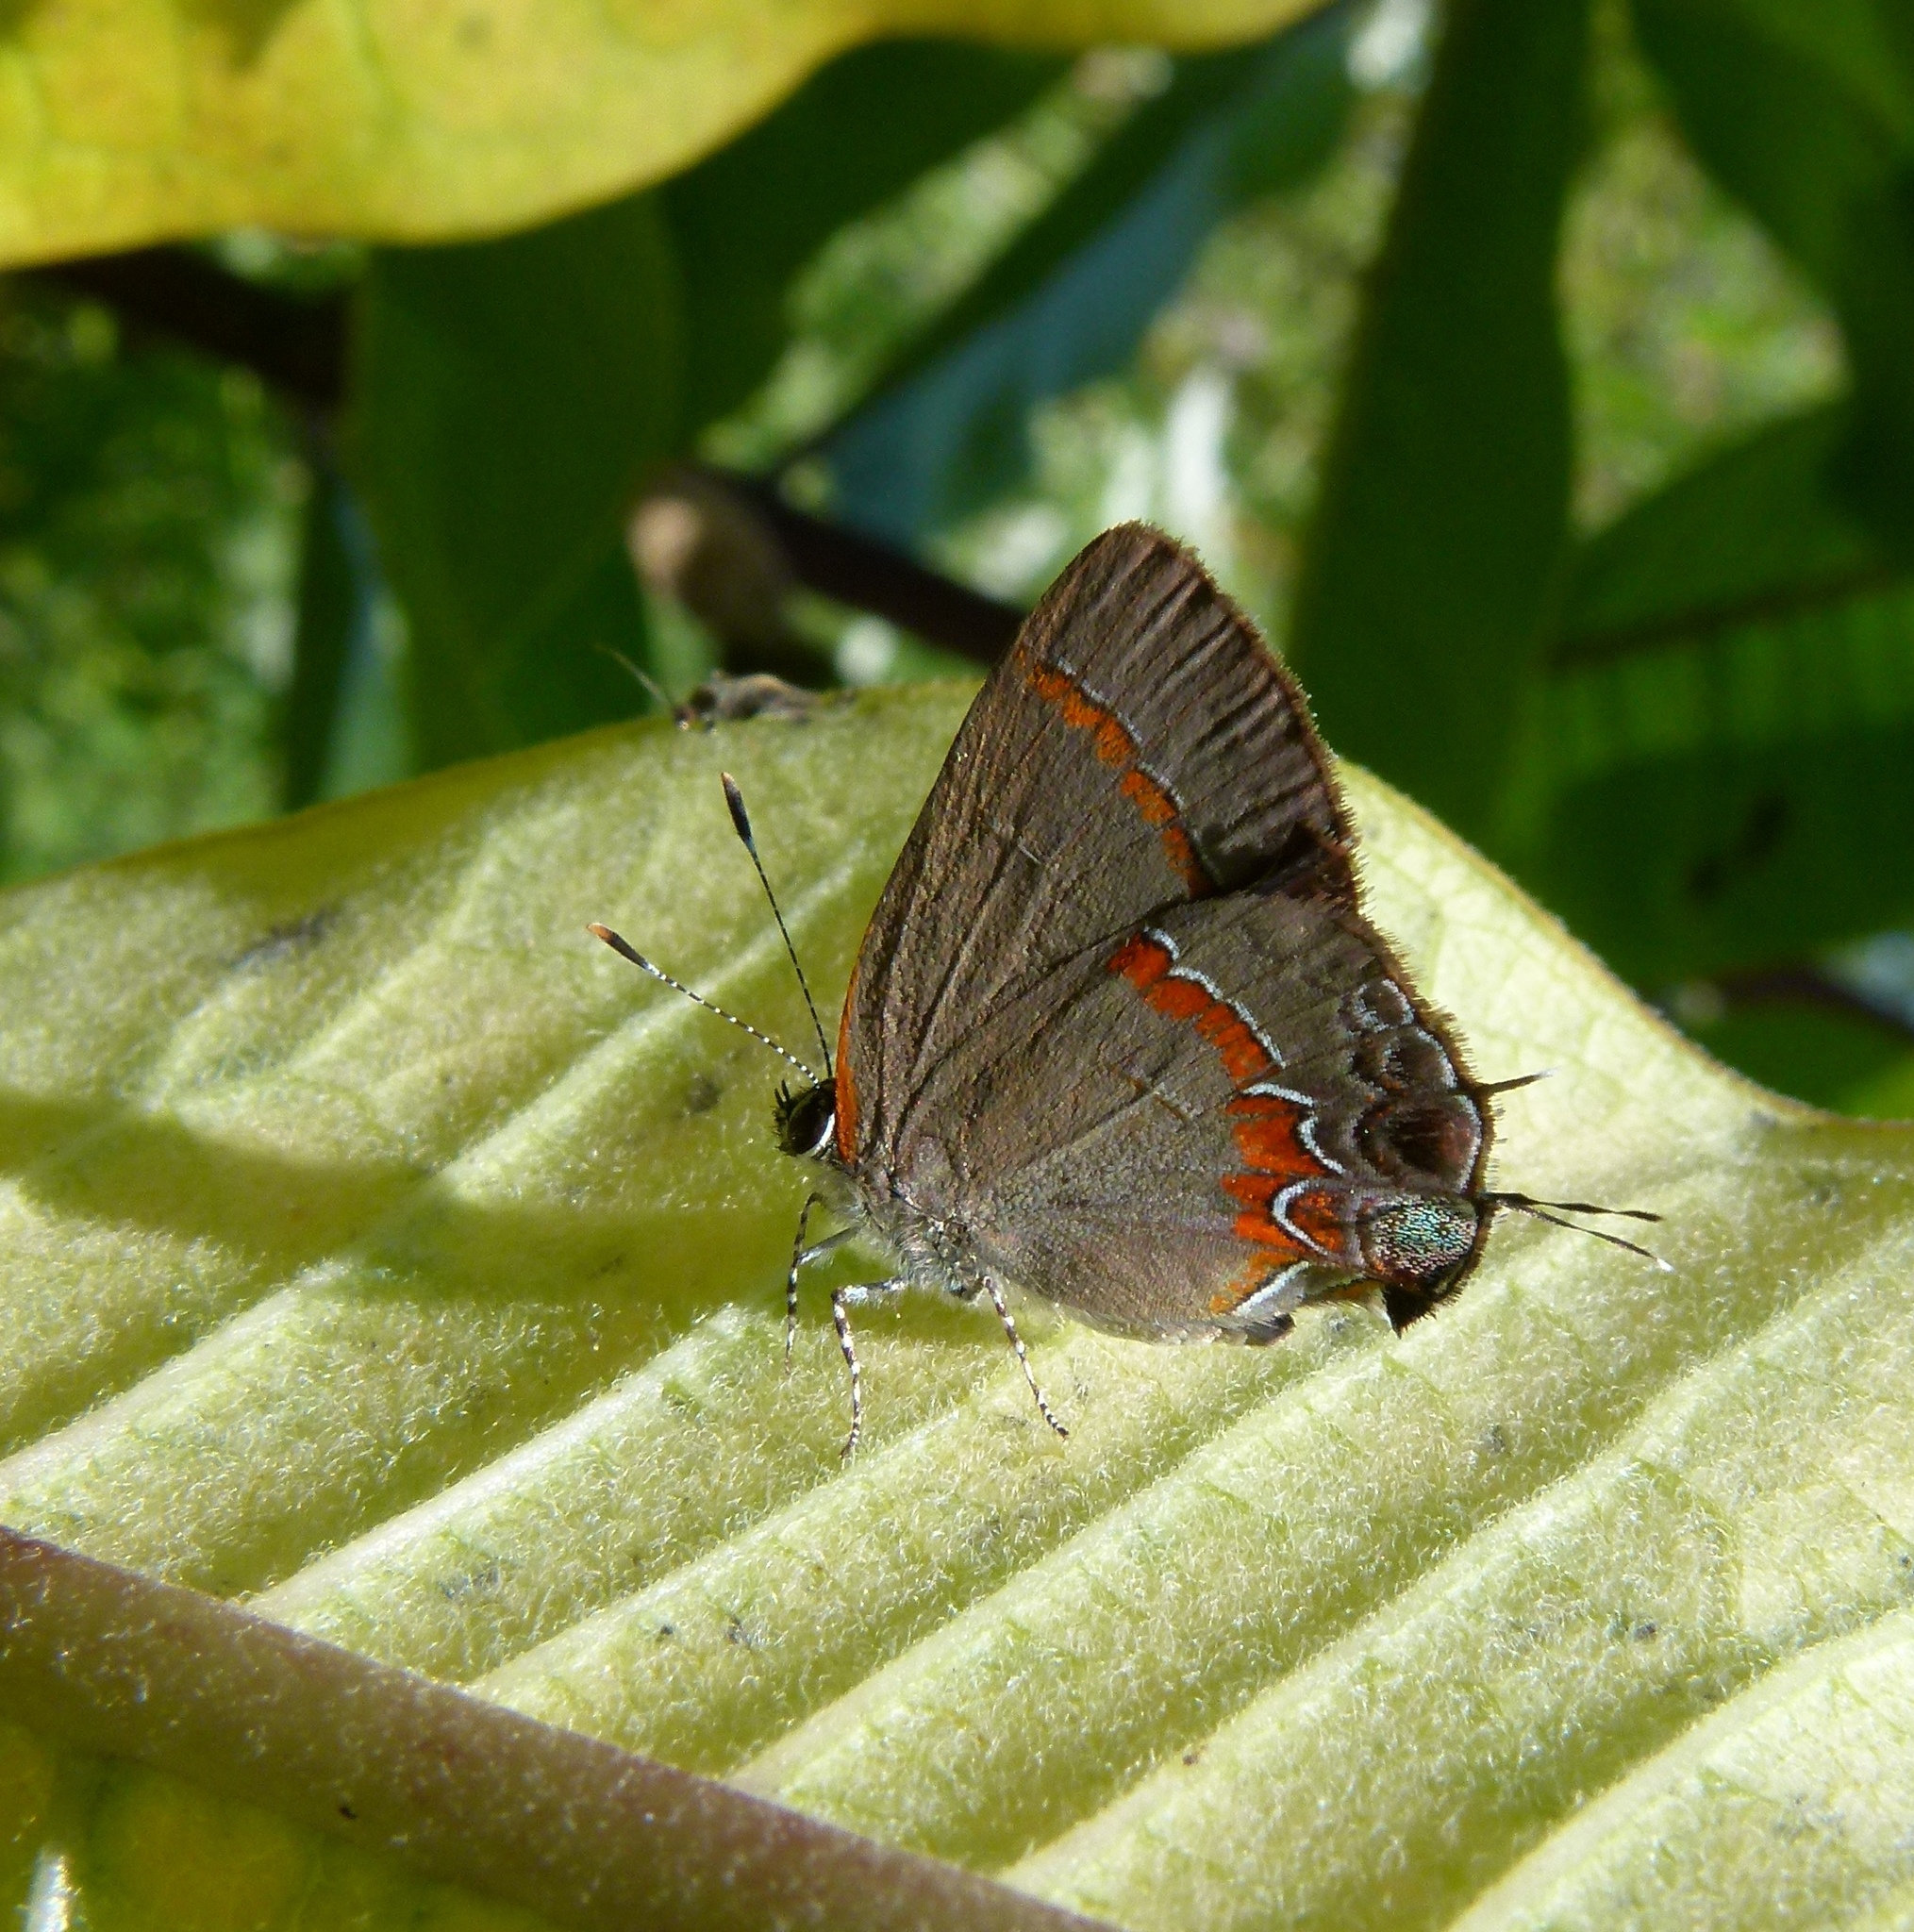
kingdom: Animalia
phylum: Arthropoda
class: Insecta
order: Lepidoptera
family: Lycaenidae
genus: Calycopis
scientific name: Calycopis cecrops
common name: Red-banded hairstreak
